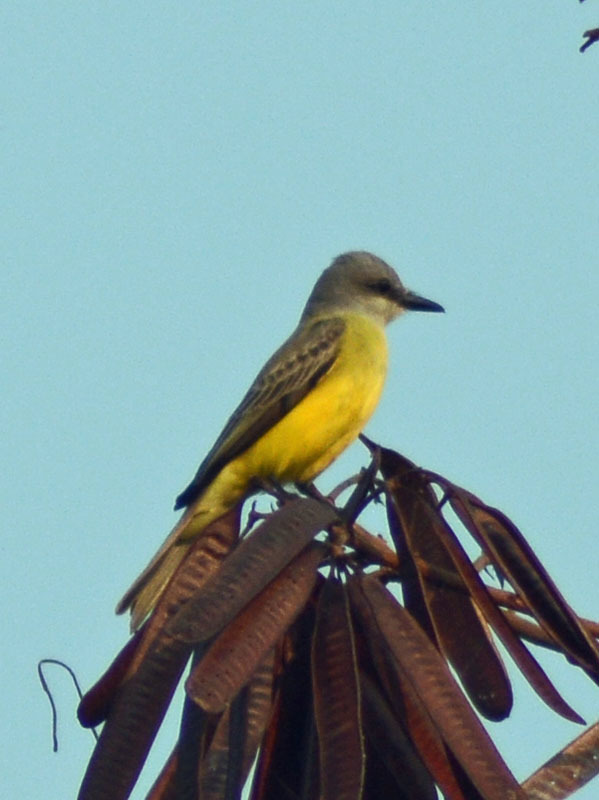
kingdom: Animalia
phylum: Chordata
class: Aves
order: Passeriformes
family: Tyrannidae
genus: Tyrannus
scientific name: Tyrannus melancholicus
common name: Tropical kingbird
